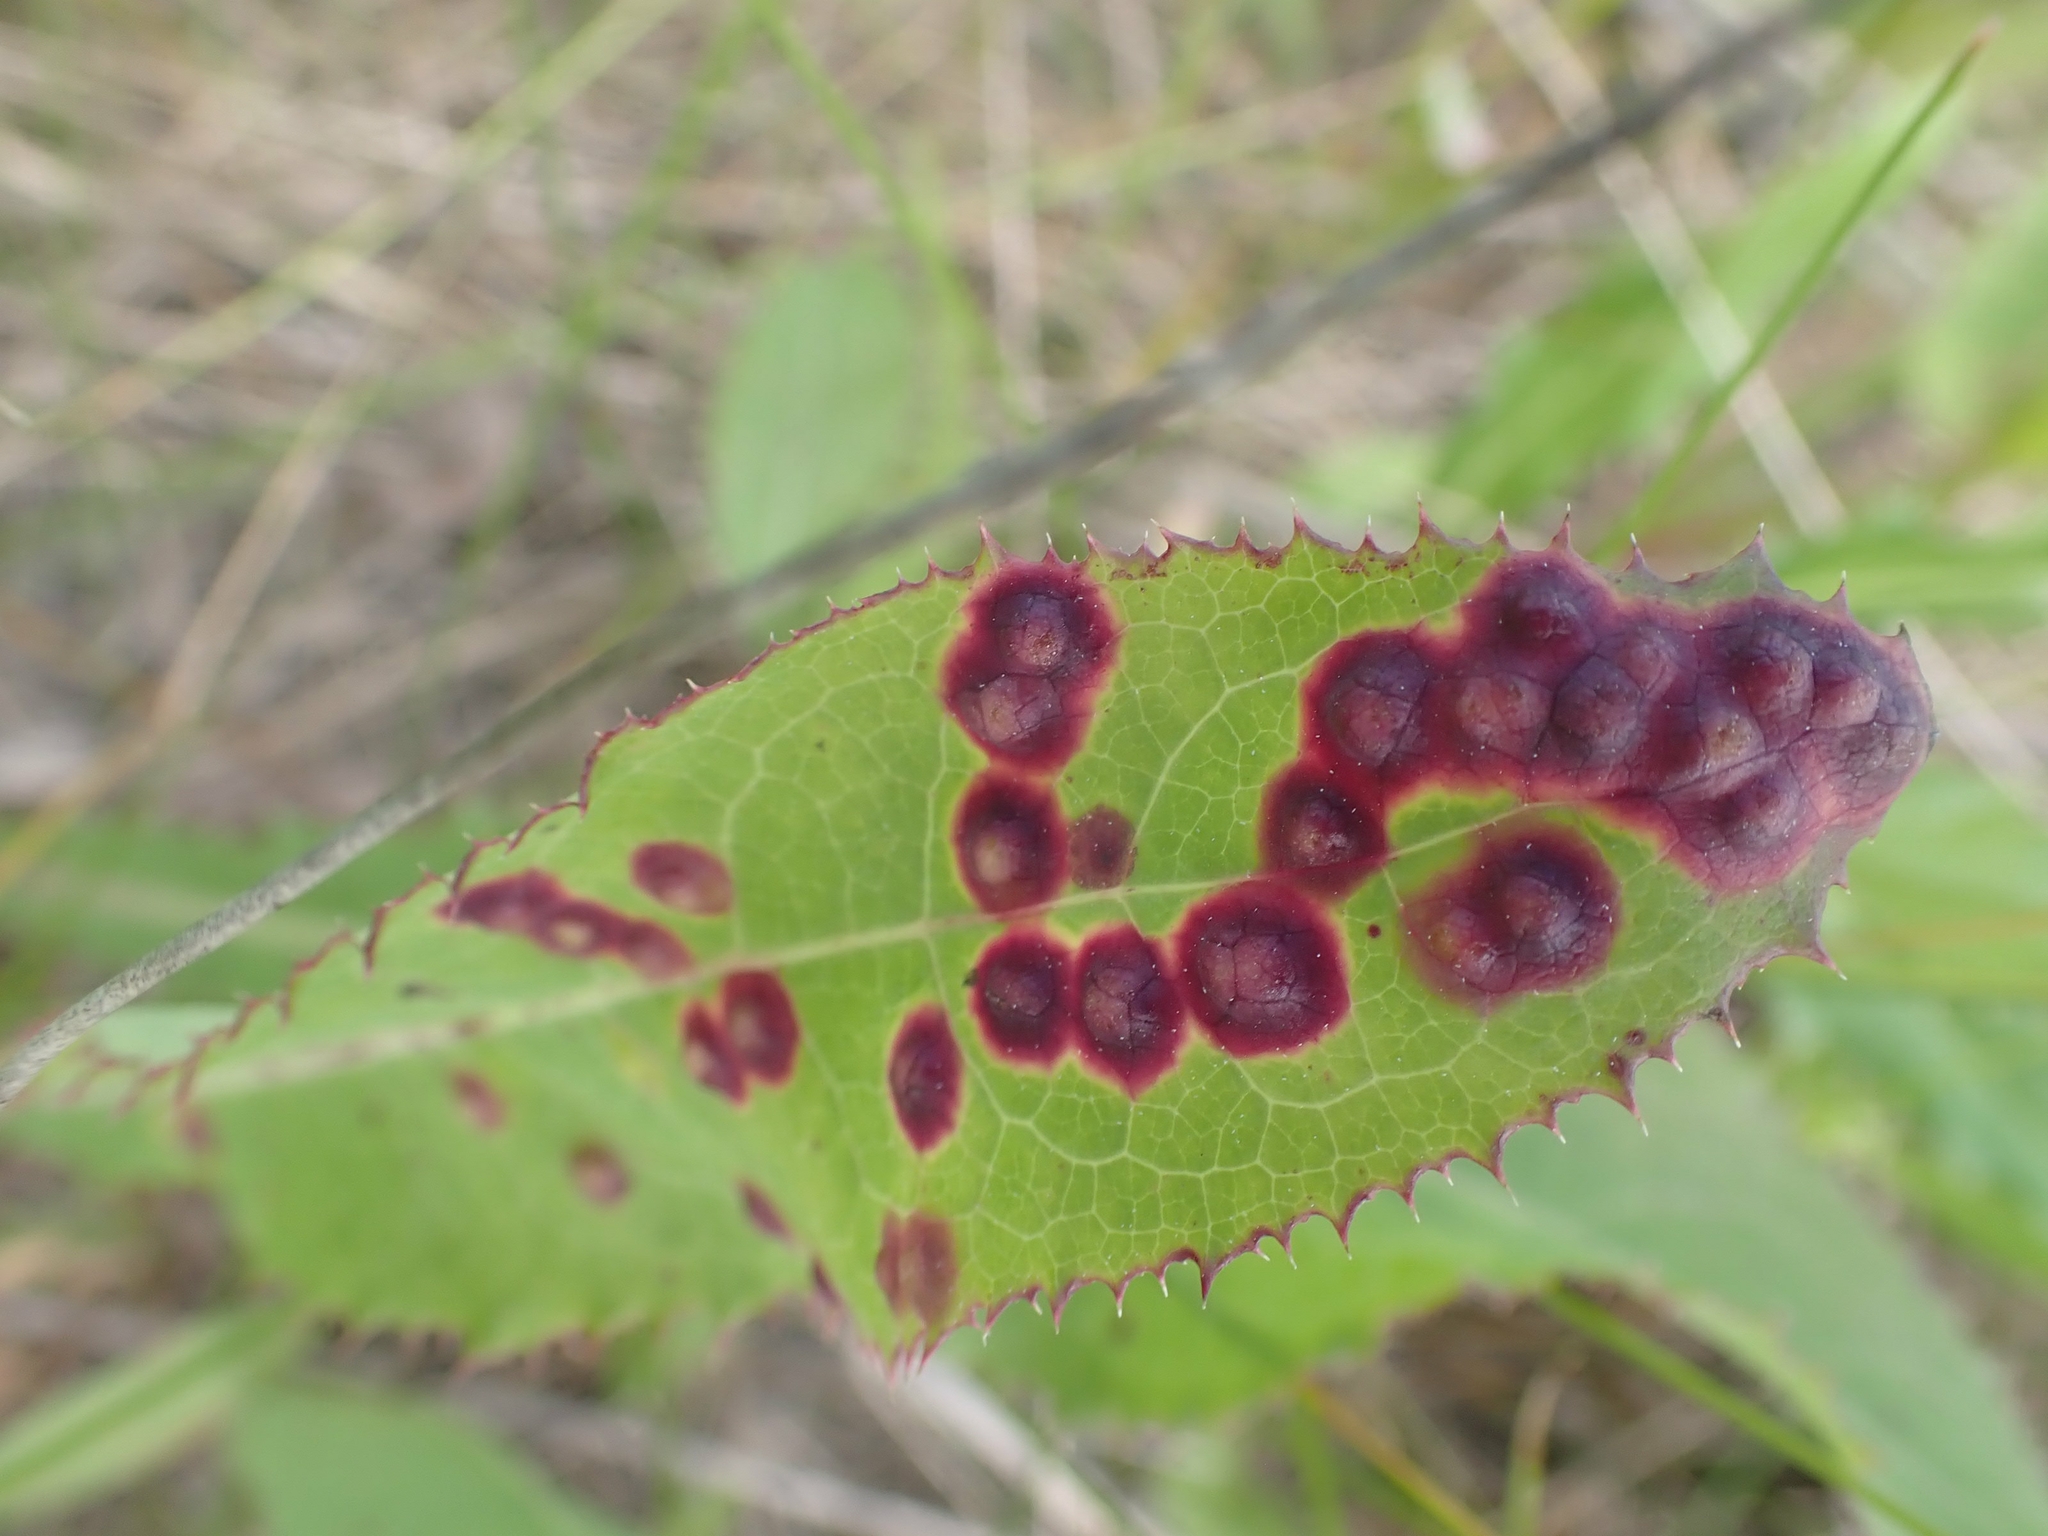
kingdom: Animalia
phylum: Arthropoda
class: Insecta
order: Diptera
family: Cecidomyiidae
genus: Cystiphora
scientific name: Cystiphora sonchi
